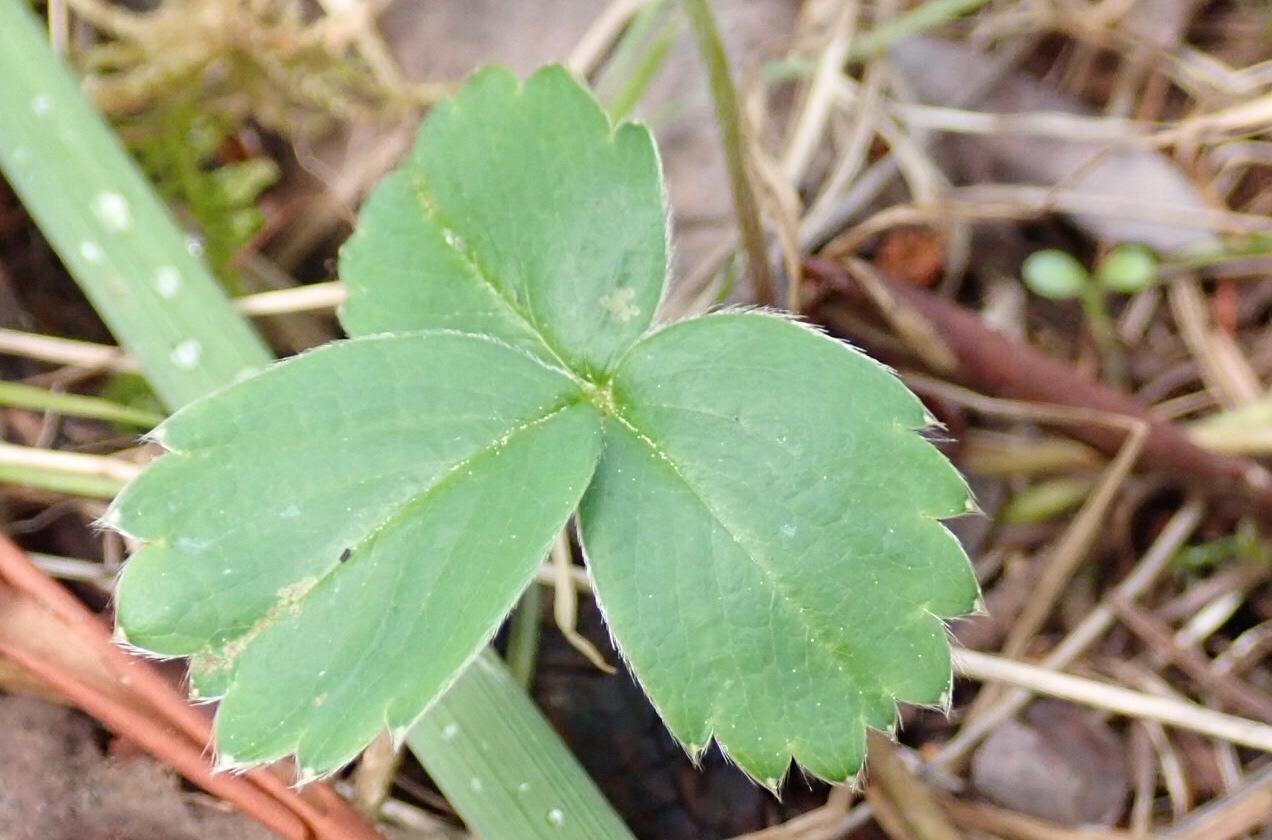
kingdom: Plantae
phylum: Tracheophyta
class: Magnoliopsida
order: Rosales
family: Rosaceae
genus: Fragaria
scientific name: Fragaria virginiana
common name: Thickleaved wild strawberry
